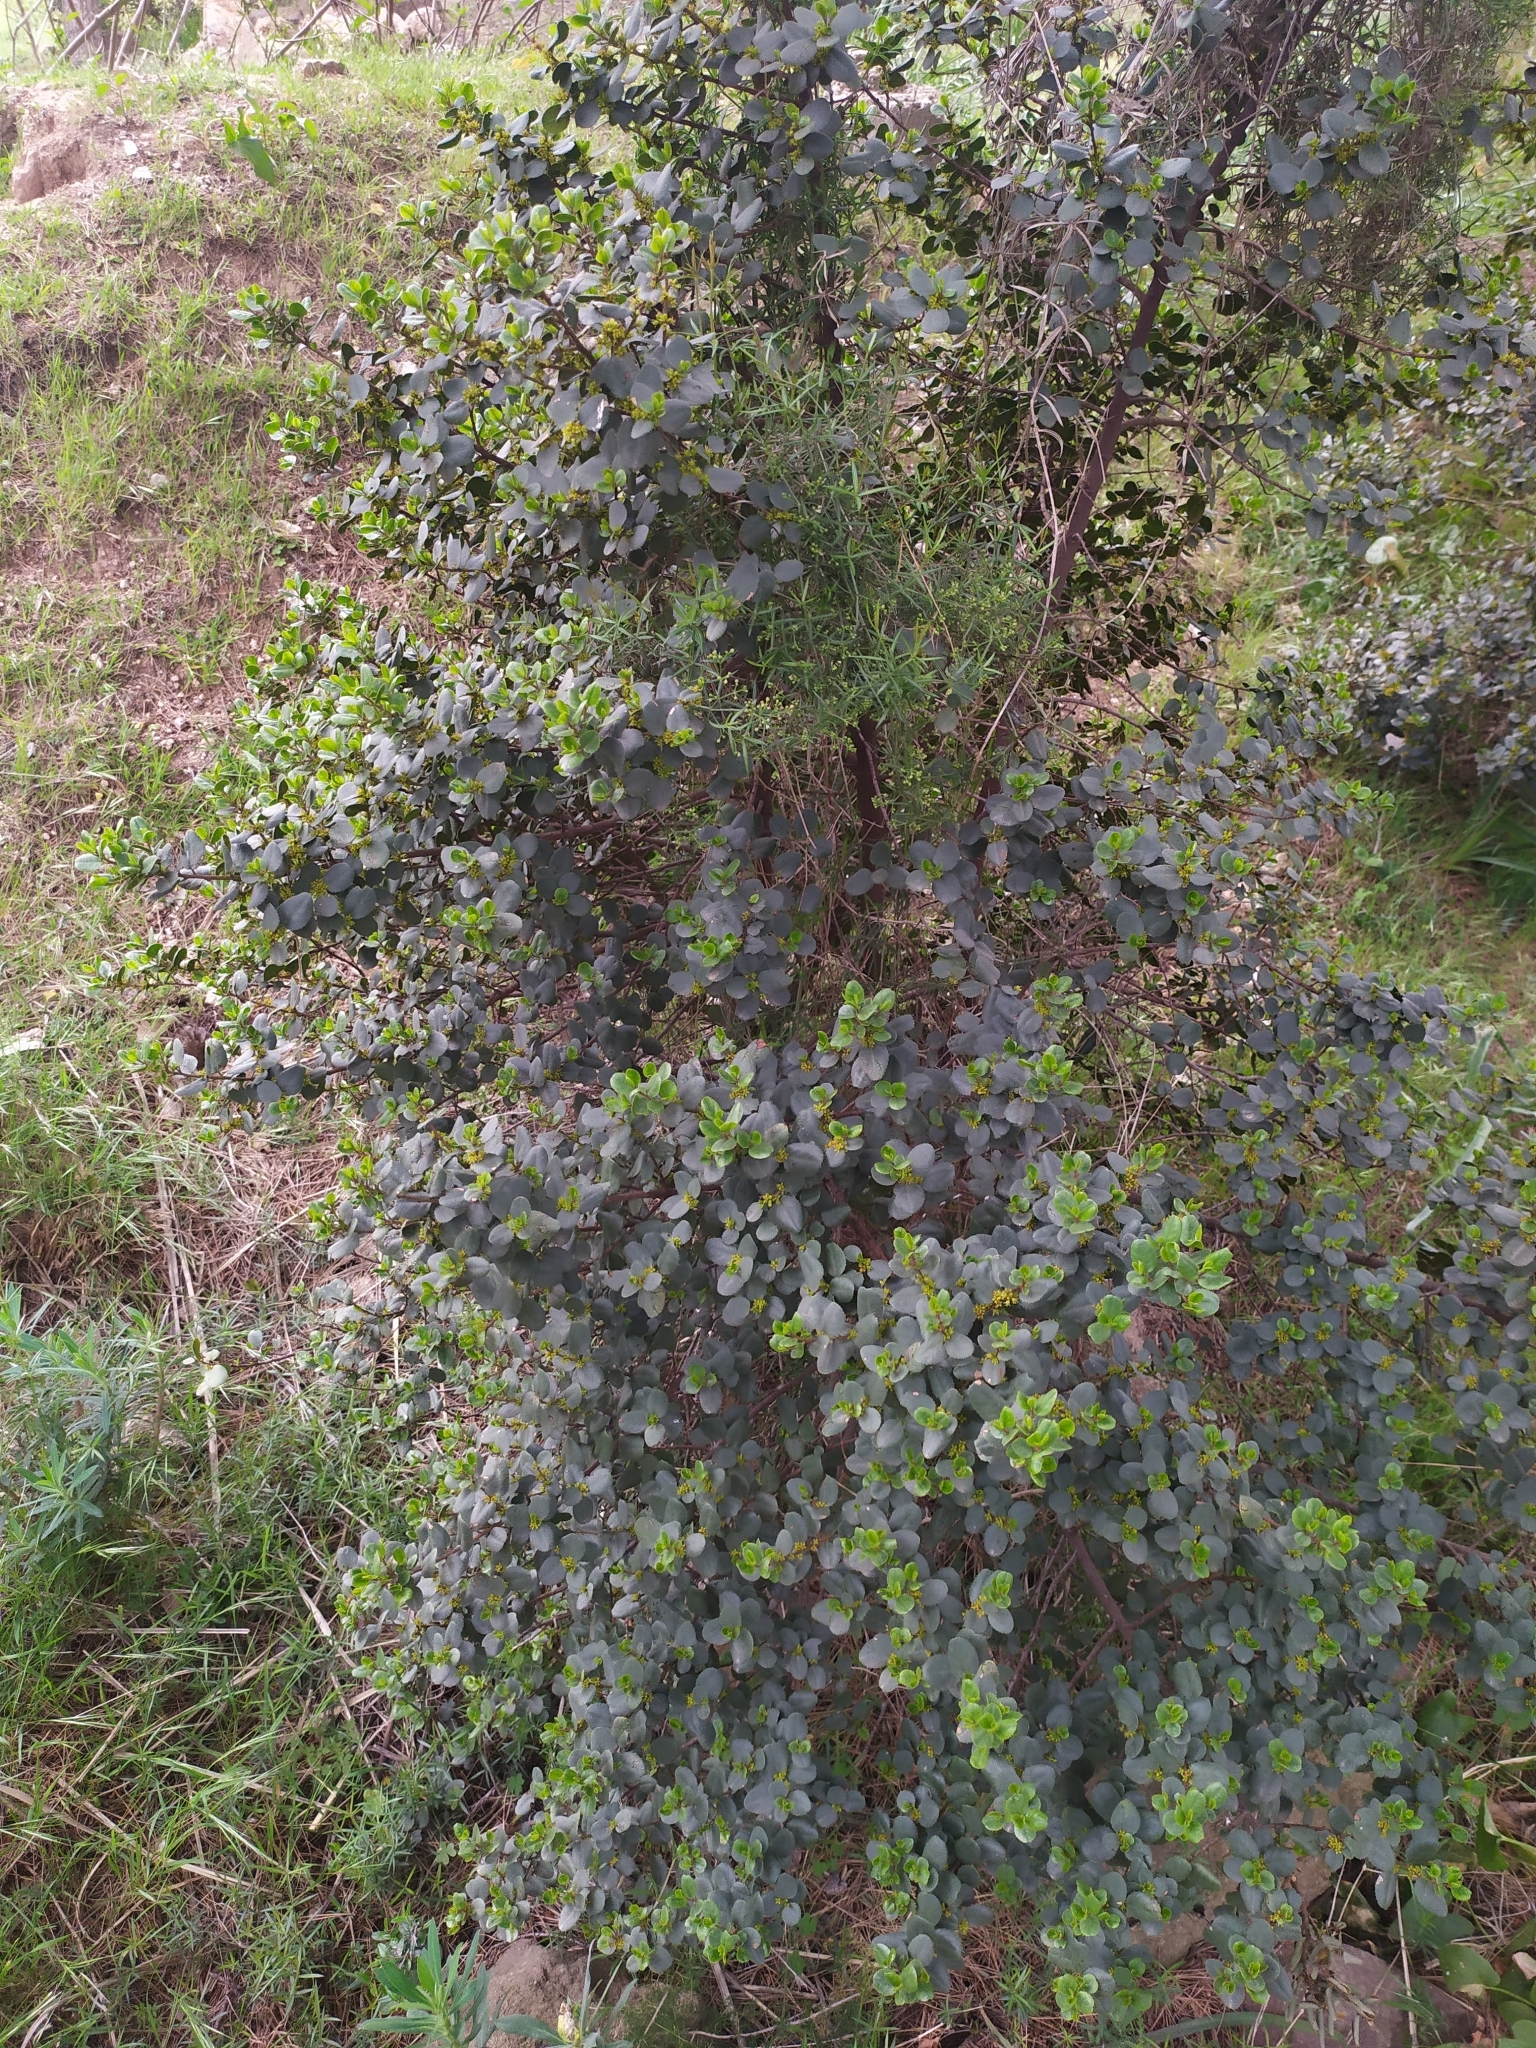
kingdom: Plantae
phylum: Tracheophyta
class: Magnoliopsida
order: Rosales
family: Rhamnaceae
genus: Rhamnus
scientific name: Rhamnus ludovici-salvatoris
